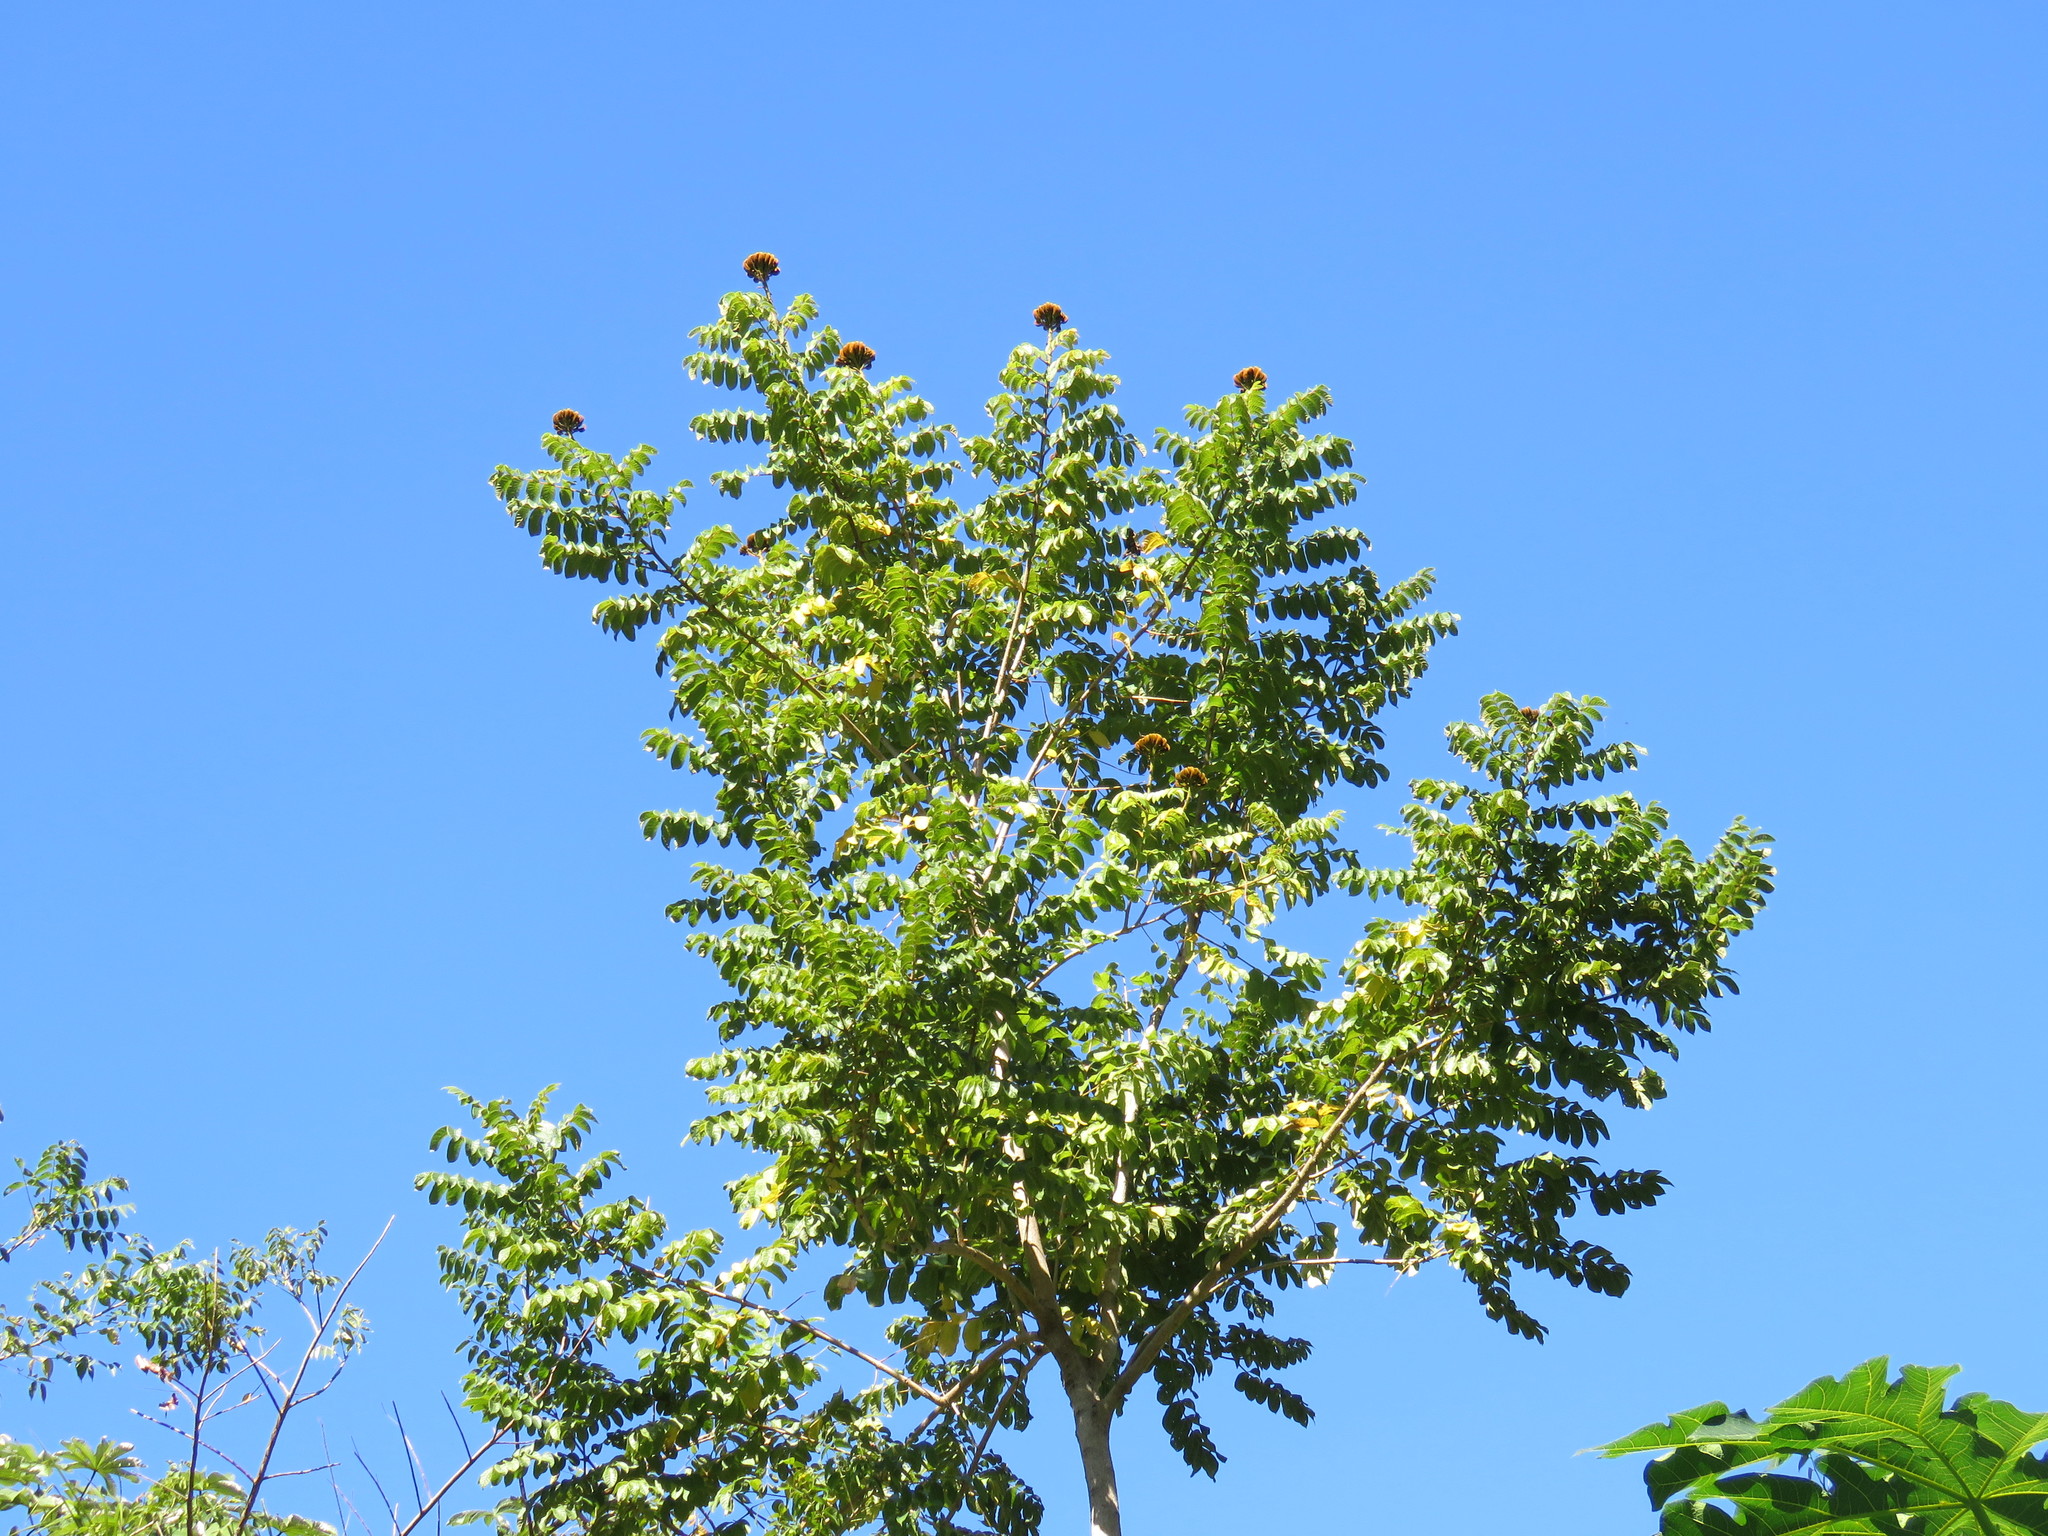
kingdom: Plantae
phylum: Tracheophyta
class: Magnoliopsida
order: Lamiales
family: Bignoniaceae
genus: Spathodea
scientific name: Spathodea campanulata
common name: African tuliptree
